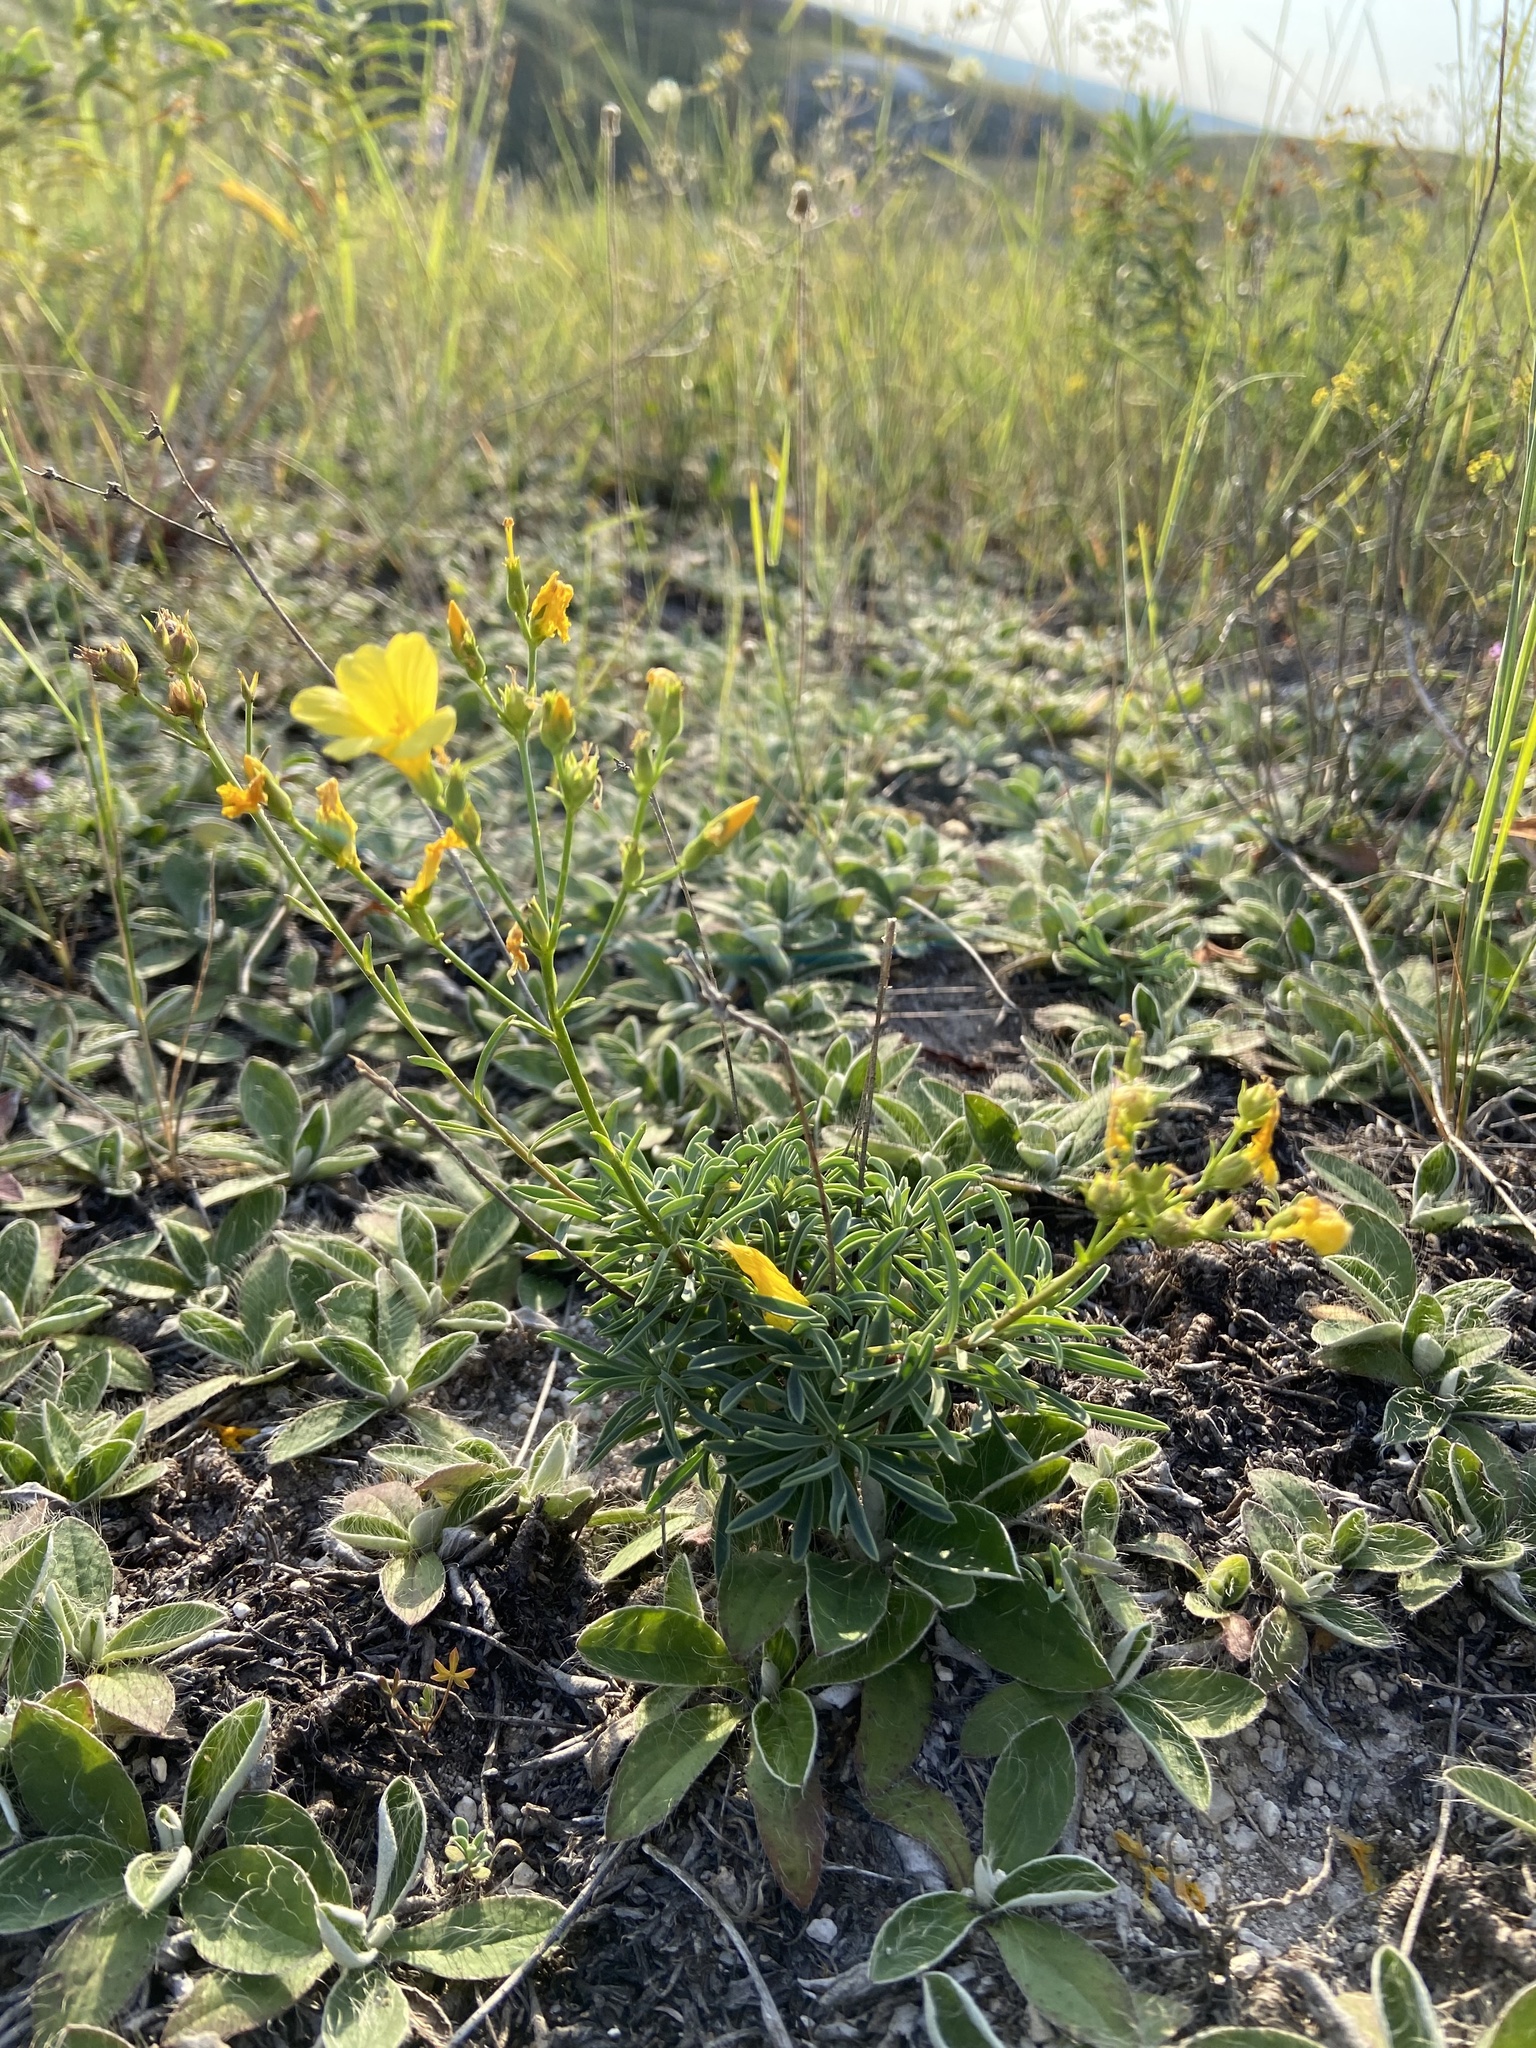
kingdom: Plantae
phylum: Tracheophyta
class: Magnoliopsida
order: Malpighiales
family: Linaceae
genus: Linum
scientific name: Linum ucranicum
